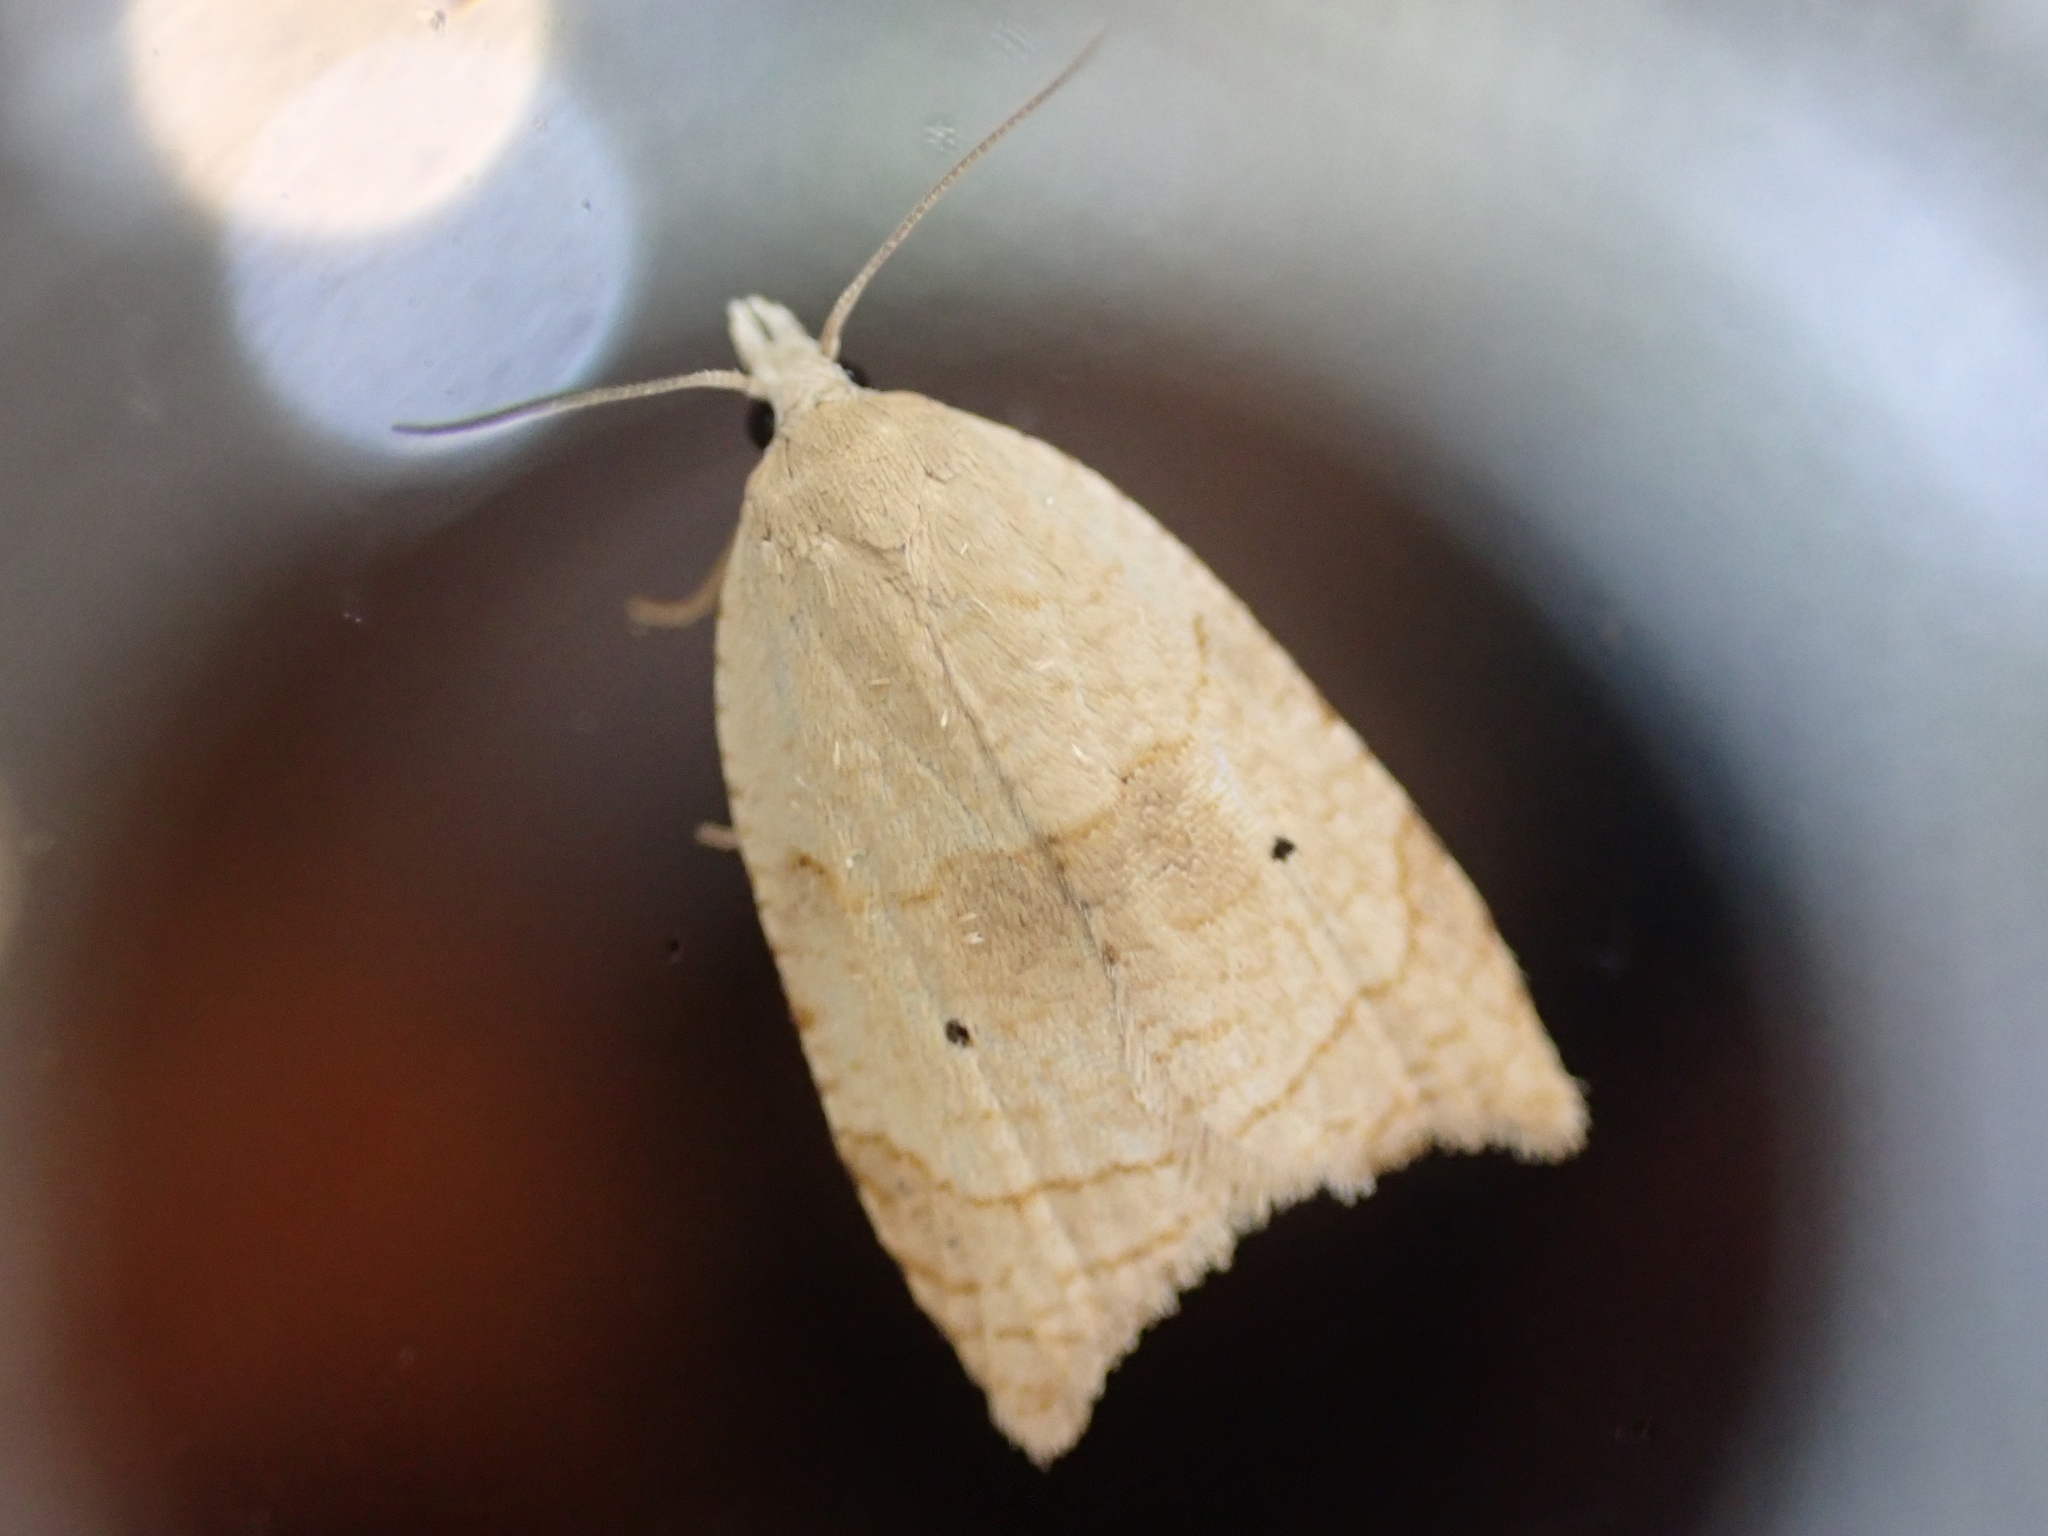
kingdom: Animalia
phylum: Arthropoda
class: Insecta
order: Lepidoptera
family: Tortricidae
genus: Coelostathma
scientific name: Coelostathma discopunctana
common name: Batman moth
